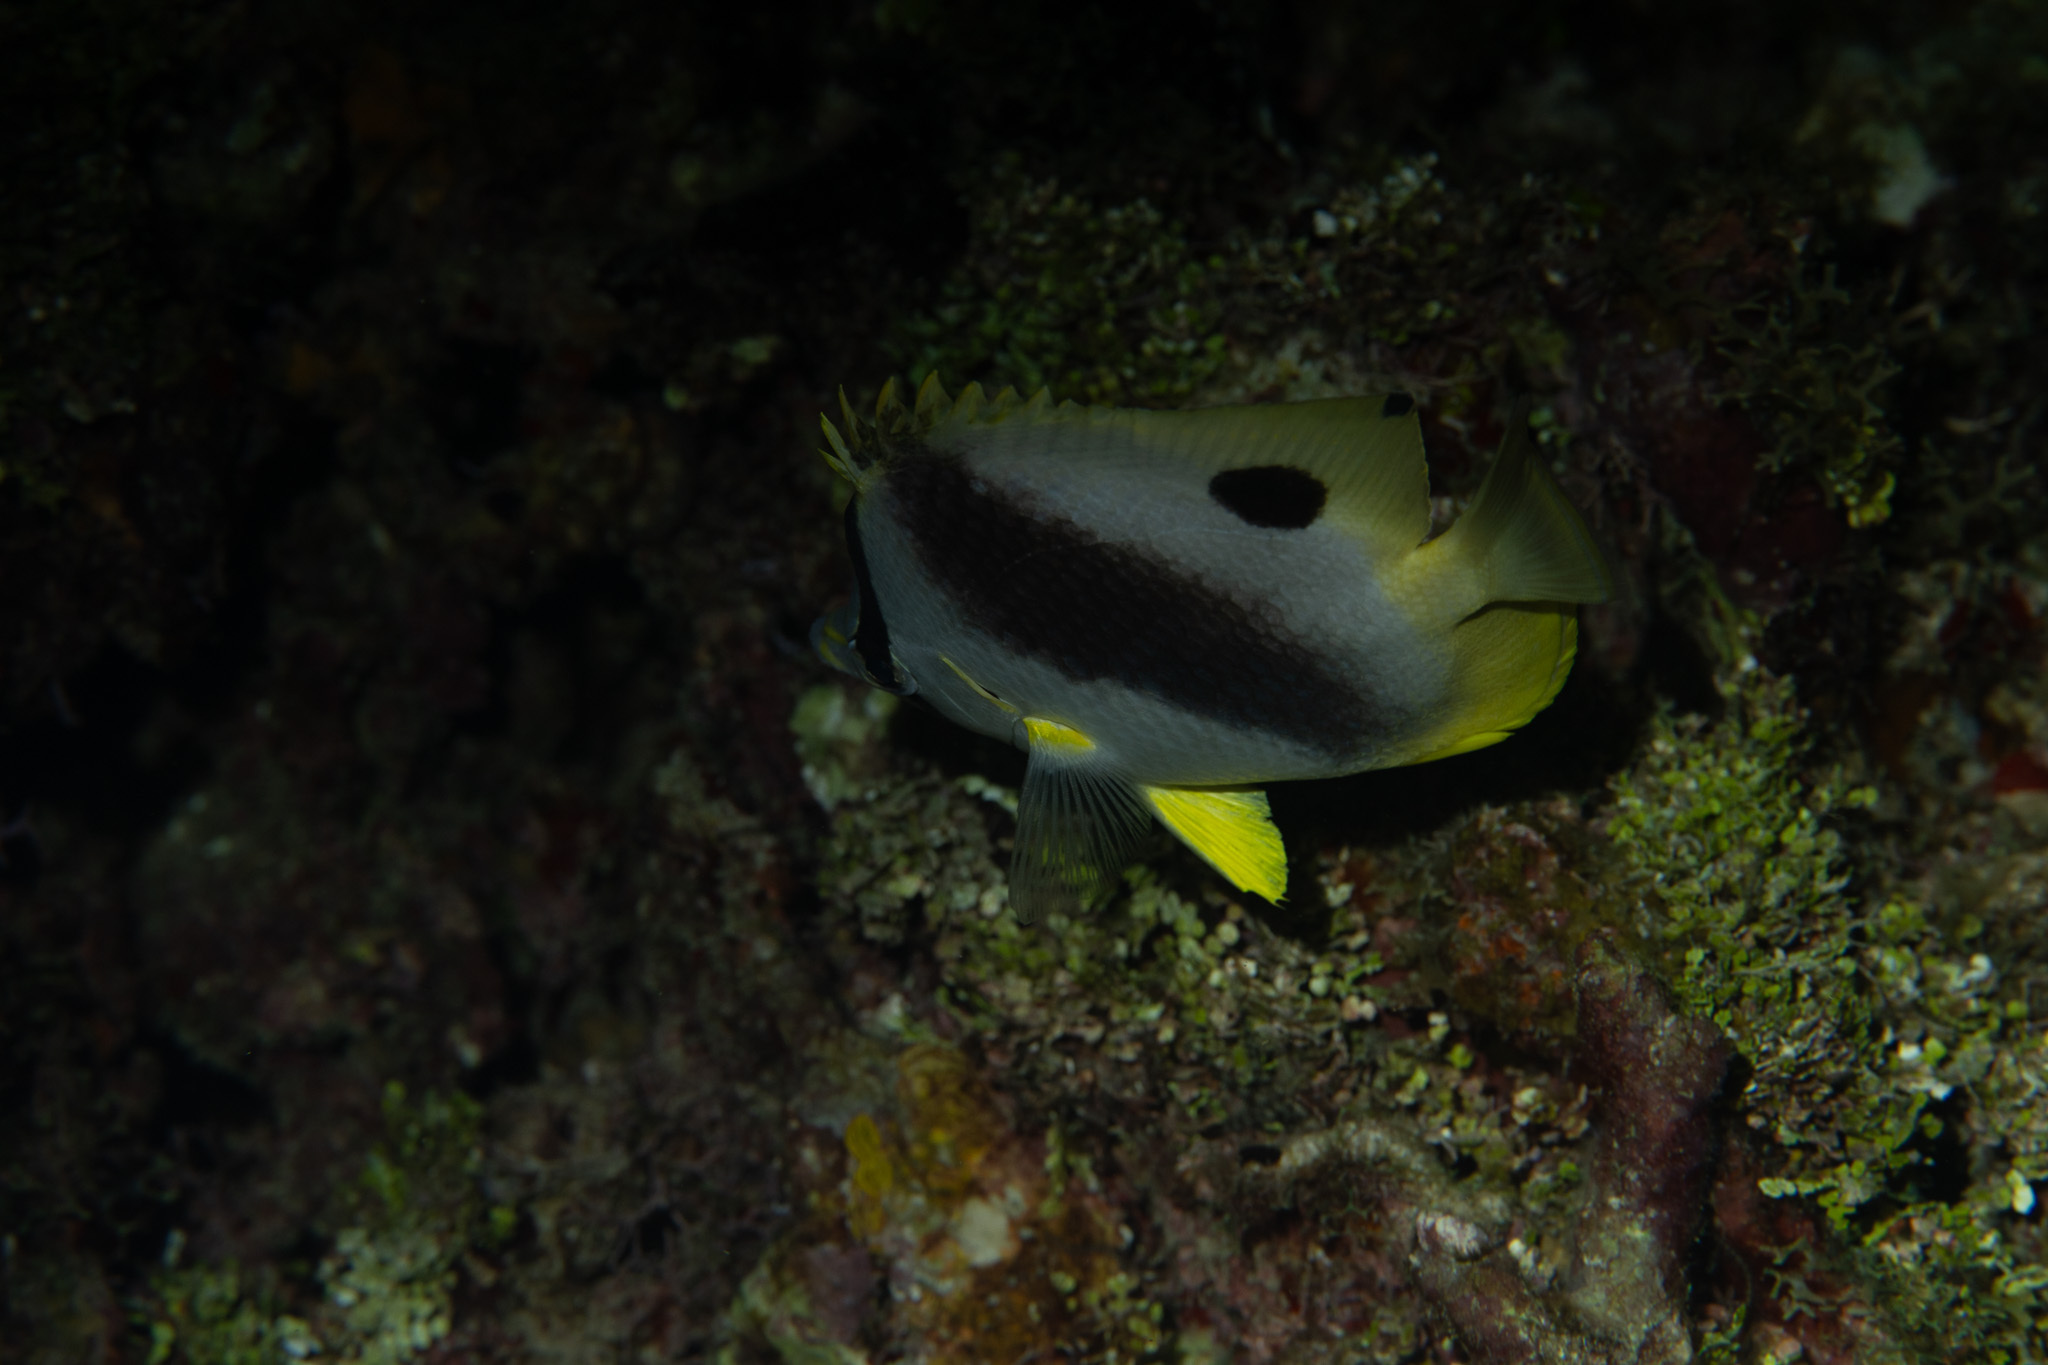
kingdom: Animalia
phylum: Chordata
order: Perciformes
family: Chaetodontidae
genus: Chaetodon
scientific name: Chaetodon capistratus
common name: Kete
